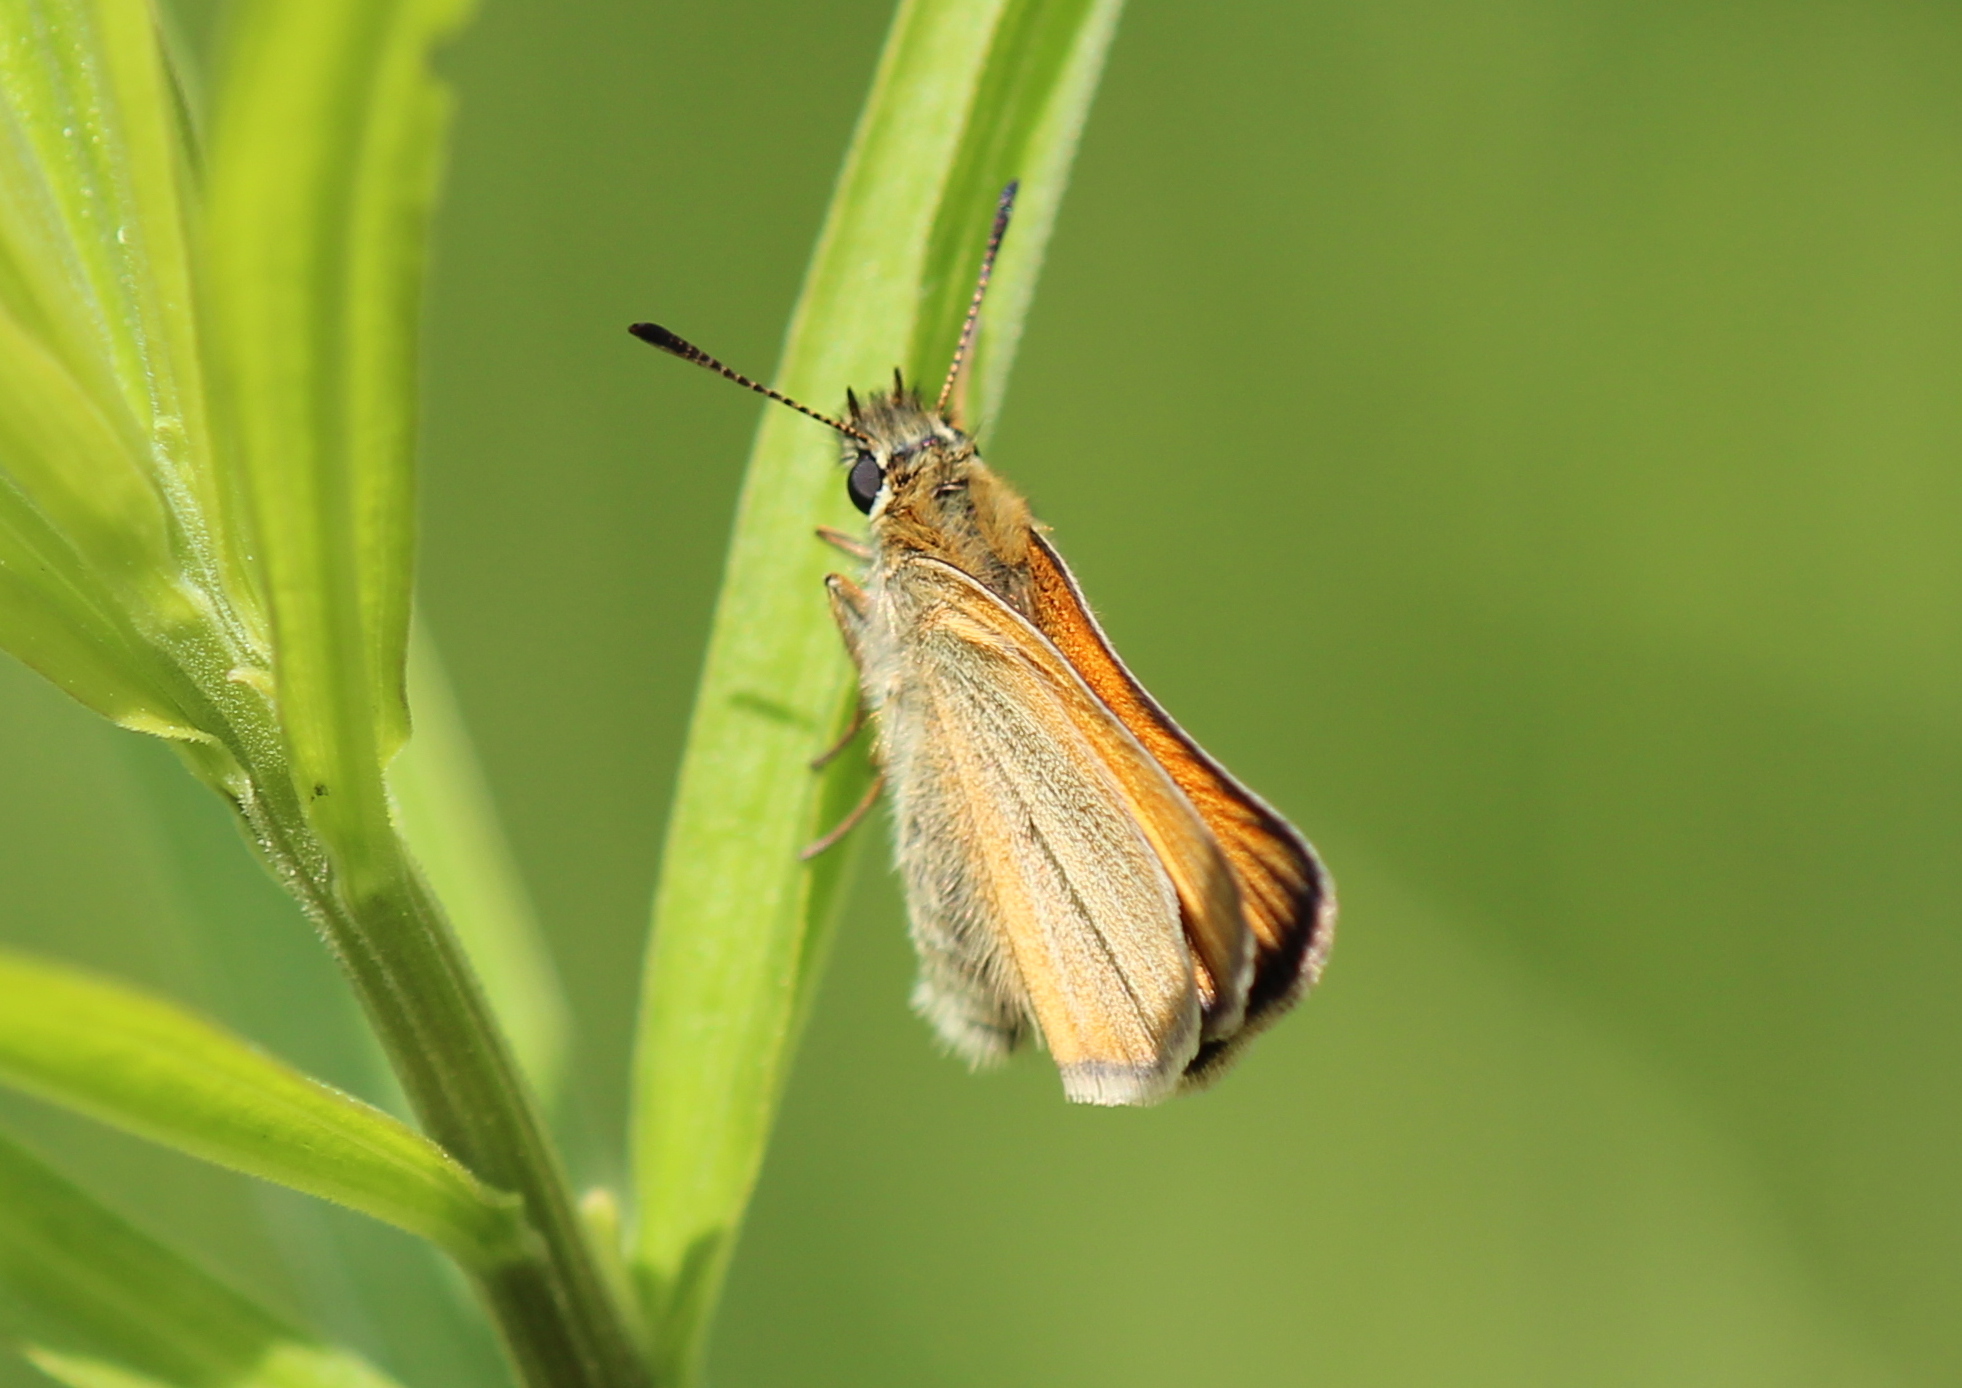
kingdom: Animalia
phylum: Arthropoda
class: Insecta
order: Lepidoptera
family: Hesperiidae
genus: Thymelicus
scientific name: Thymelicus lineola
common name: Essex skipper
